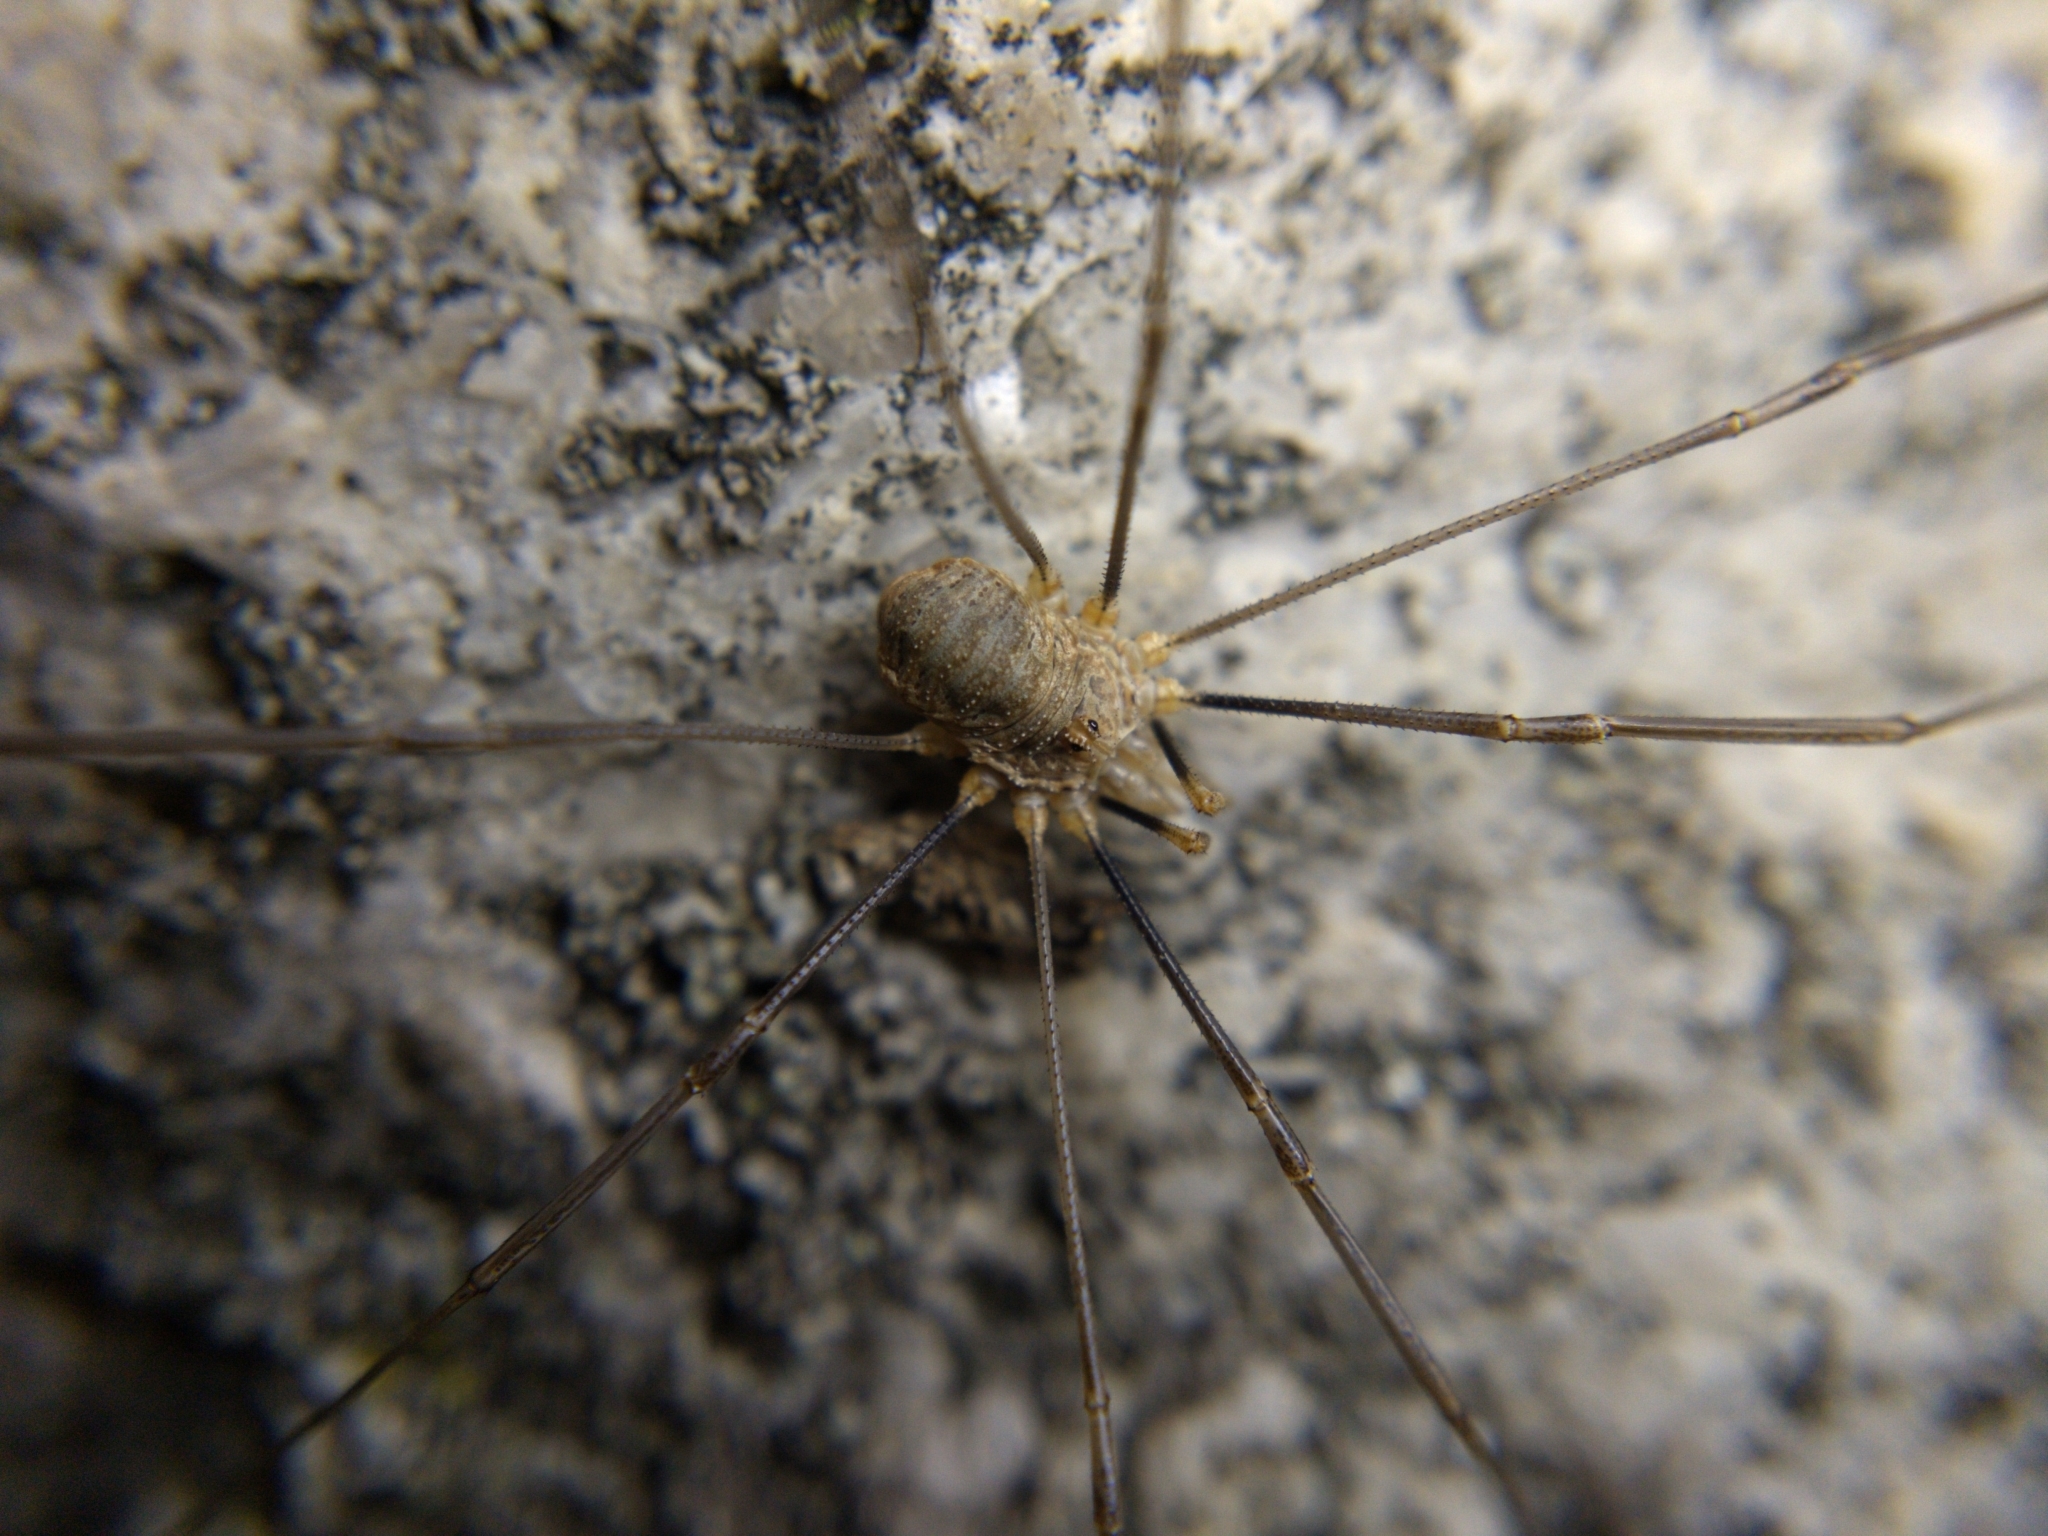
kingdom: Animalia
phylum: Arthropoda
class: Arachnida
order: Opiliones
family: Phalangiidae
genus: Phalangium
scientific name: Phalangium opilio
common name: Daddy longleg
